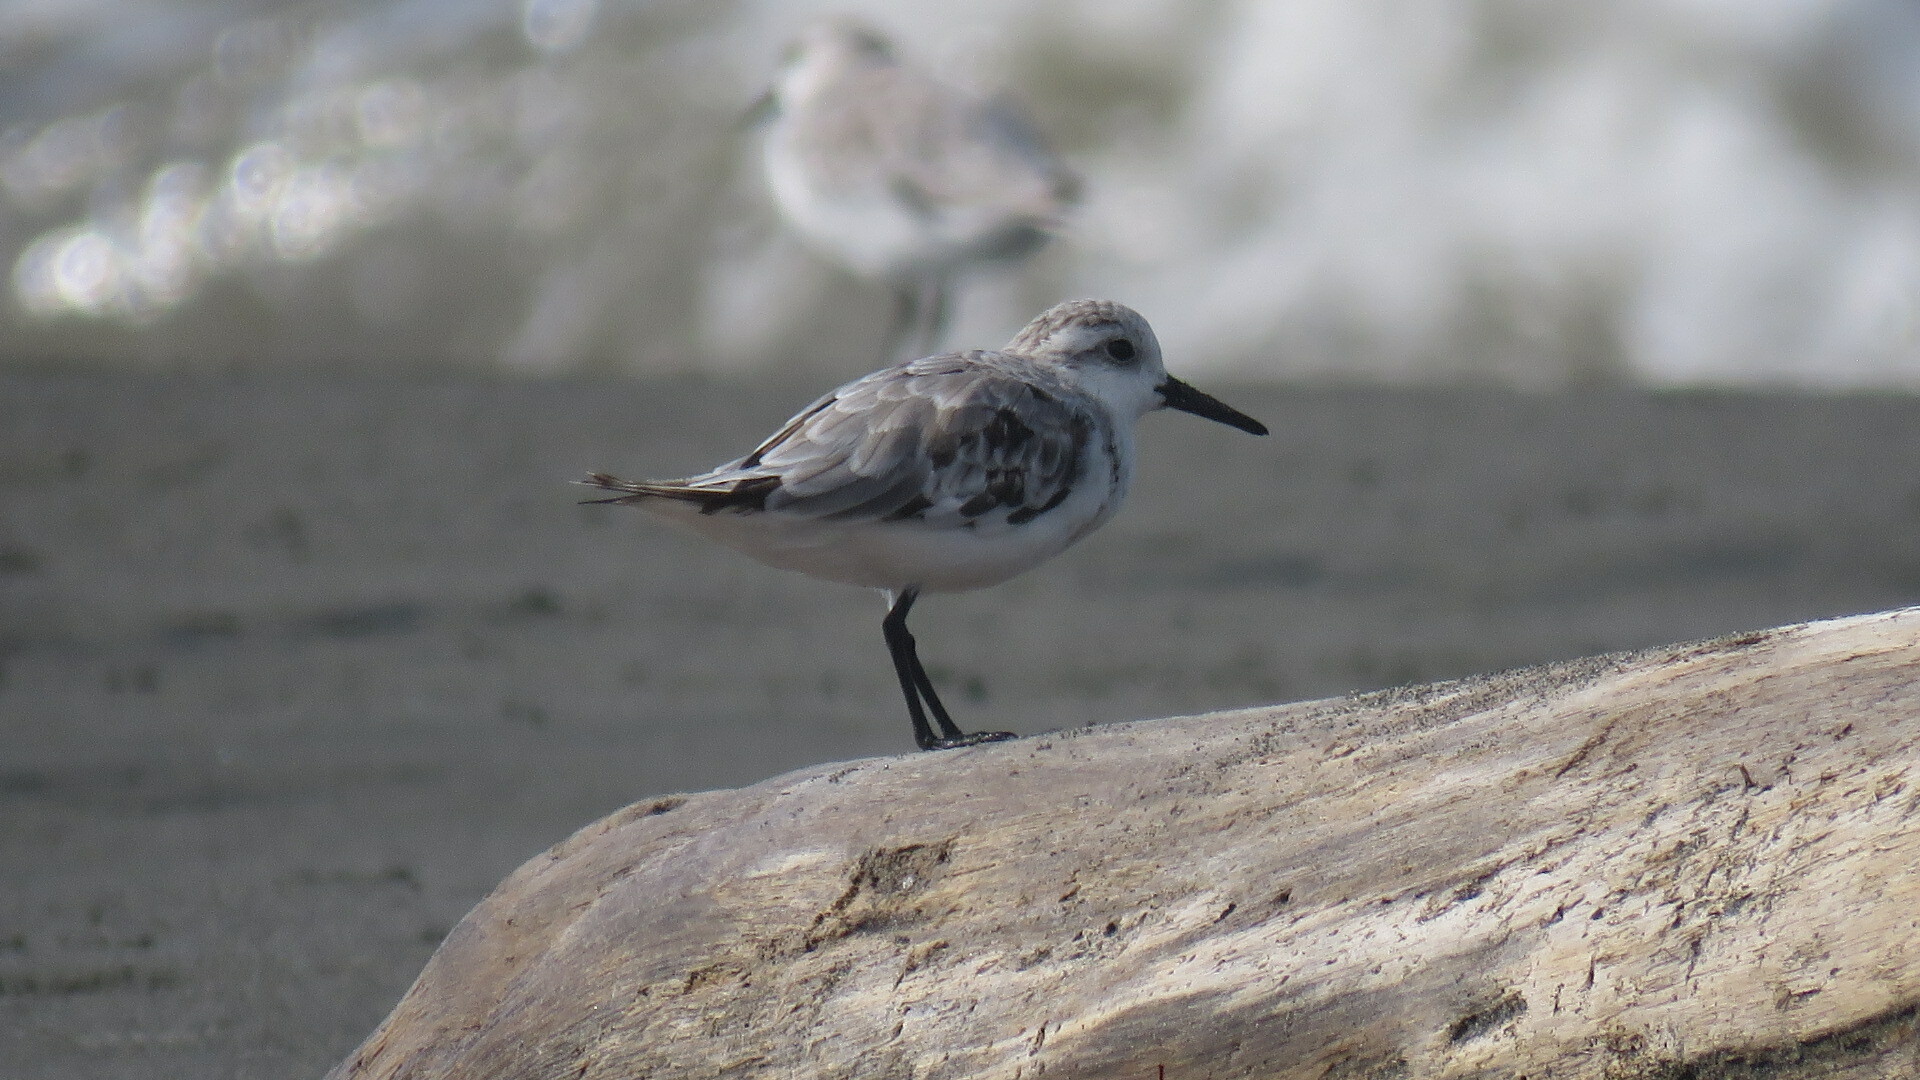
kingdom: Animalia
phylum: Chordata
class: Aves
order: Charadriiformes
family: Scolopacidae
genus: Calidris
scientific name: Calidris alba
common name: Sanderling
